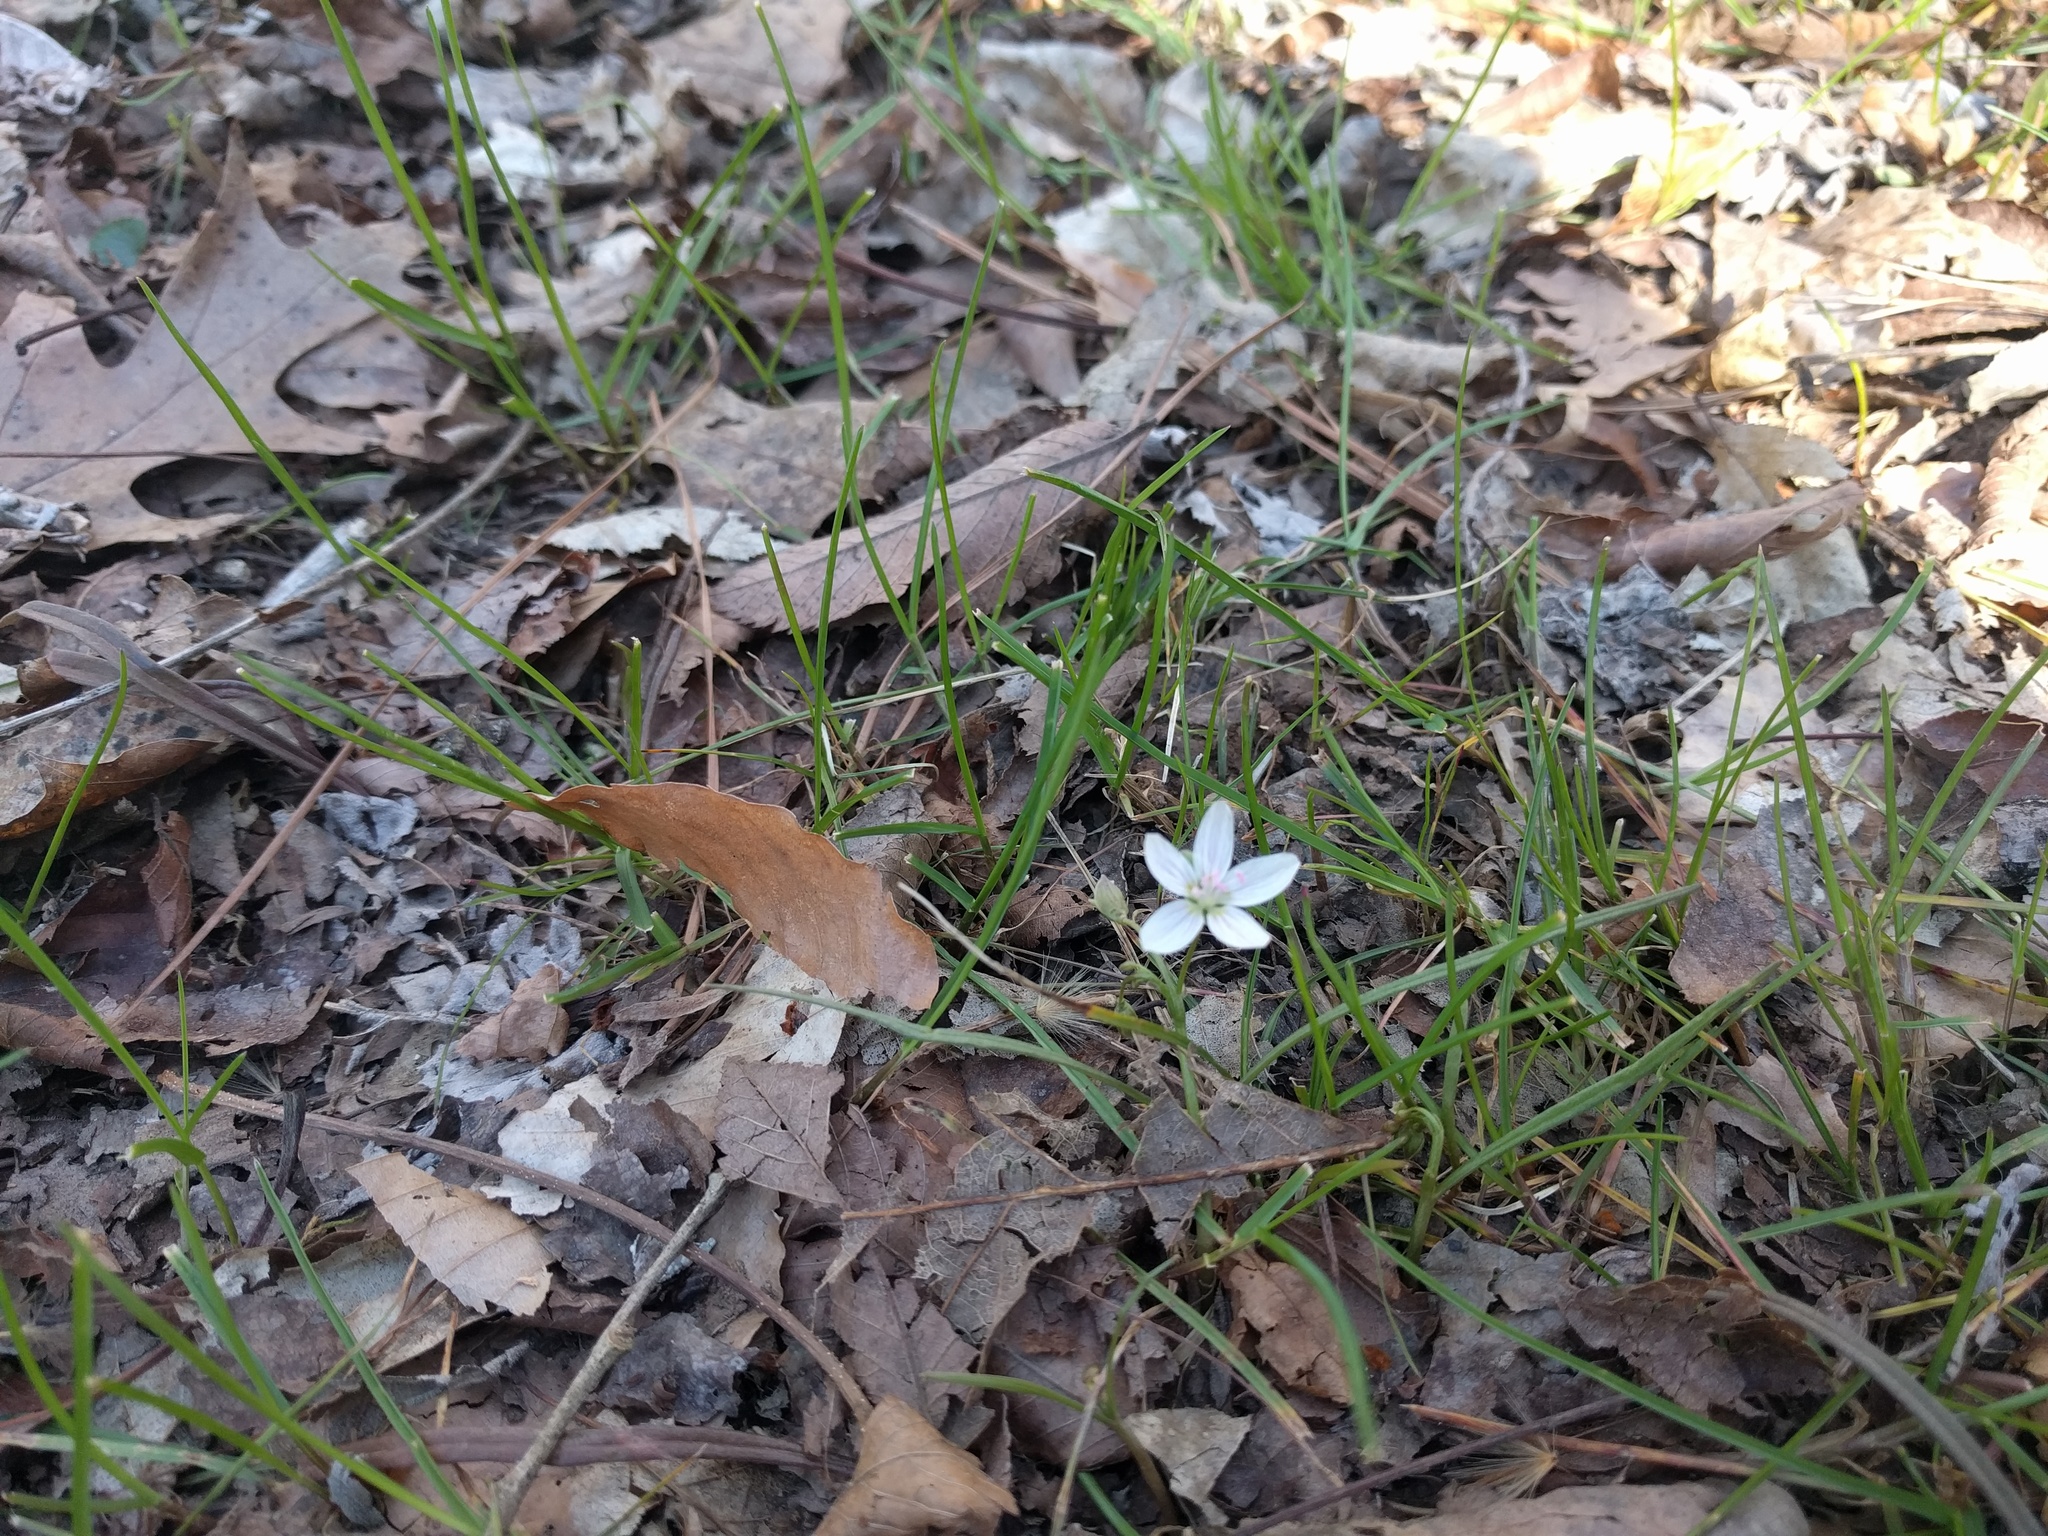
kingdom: Plantae
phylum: Tracheophyta
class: Magnoliopsida
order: Caryophyllales
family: Montiaceae
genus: Claytonia
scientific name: Claytonia virginica
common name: Virginia springbeauty
